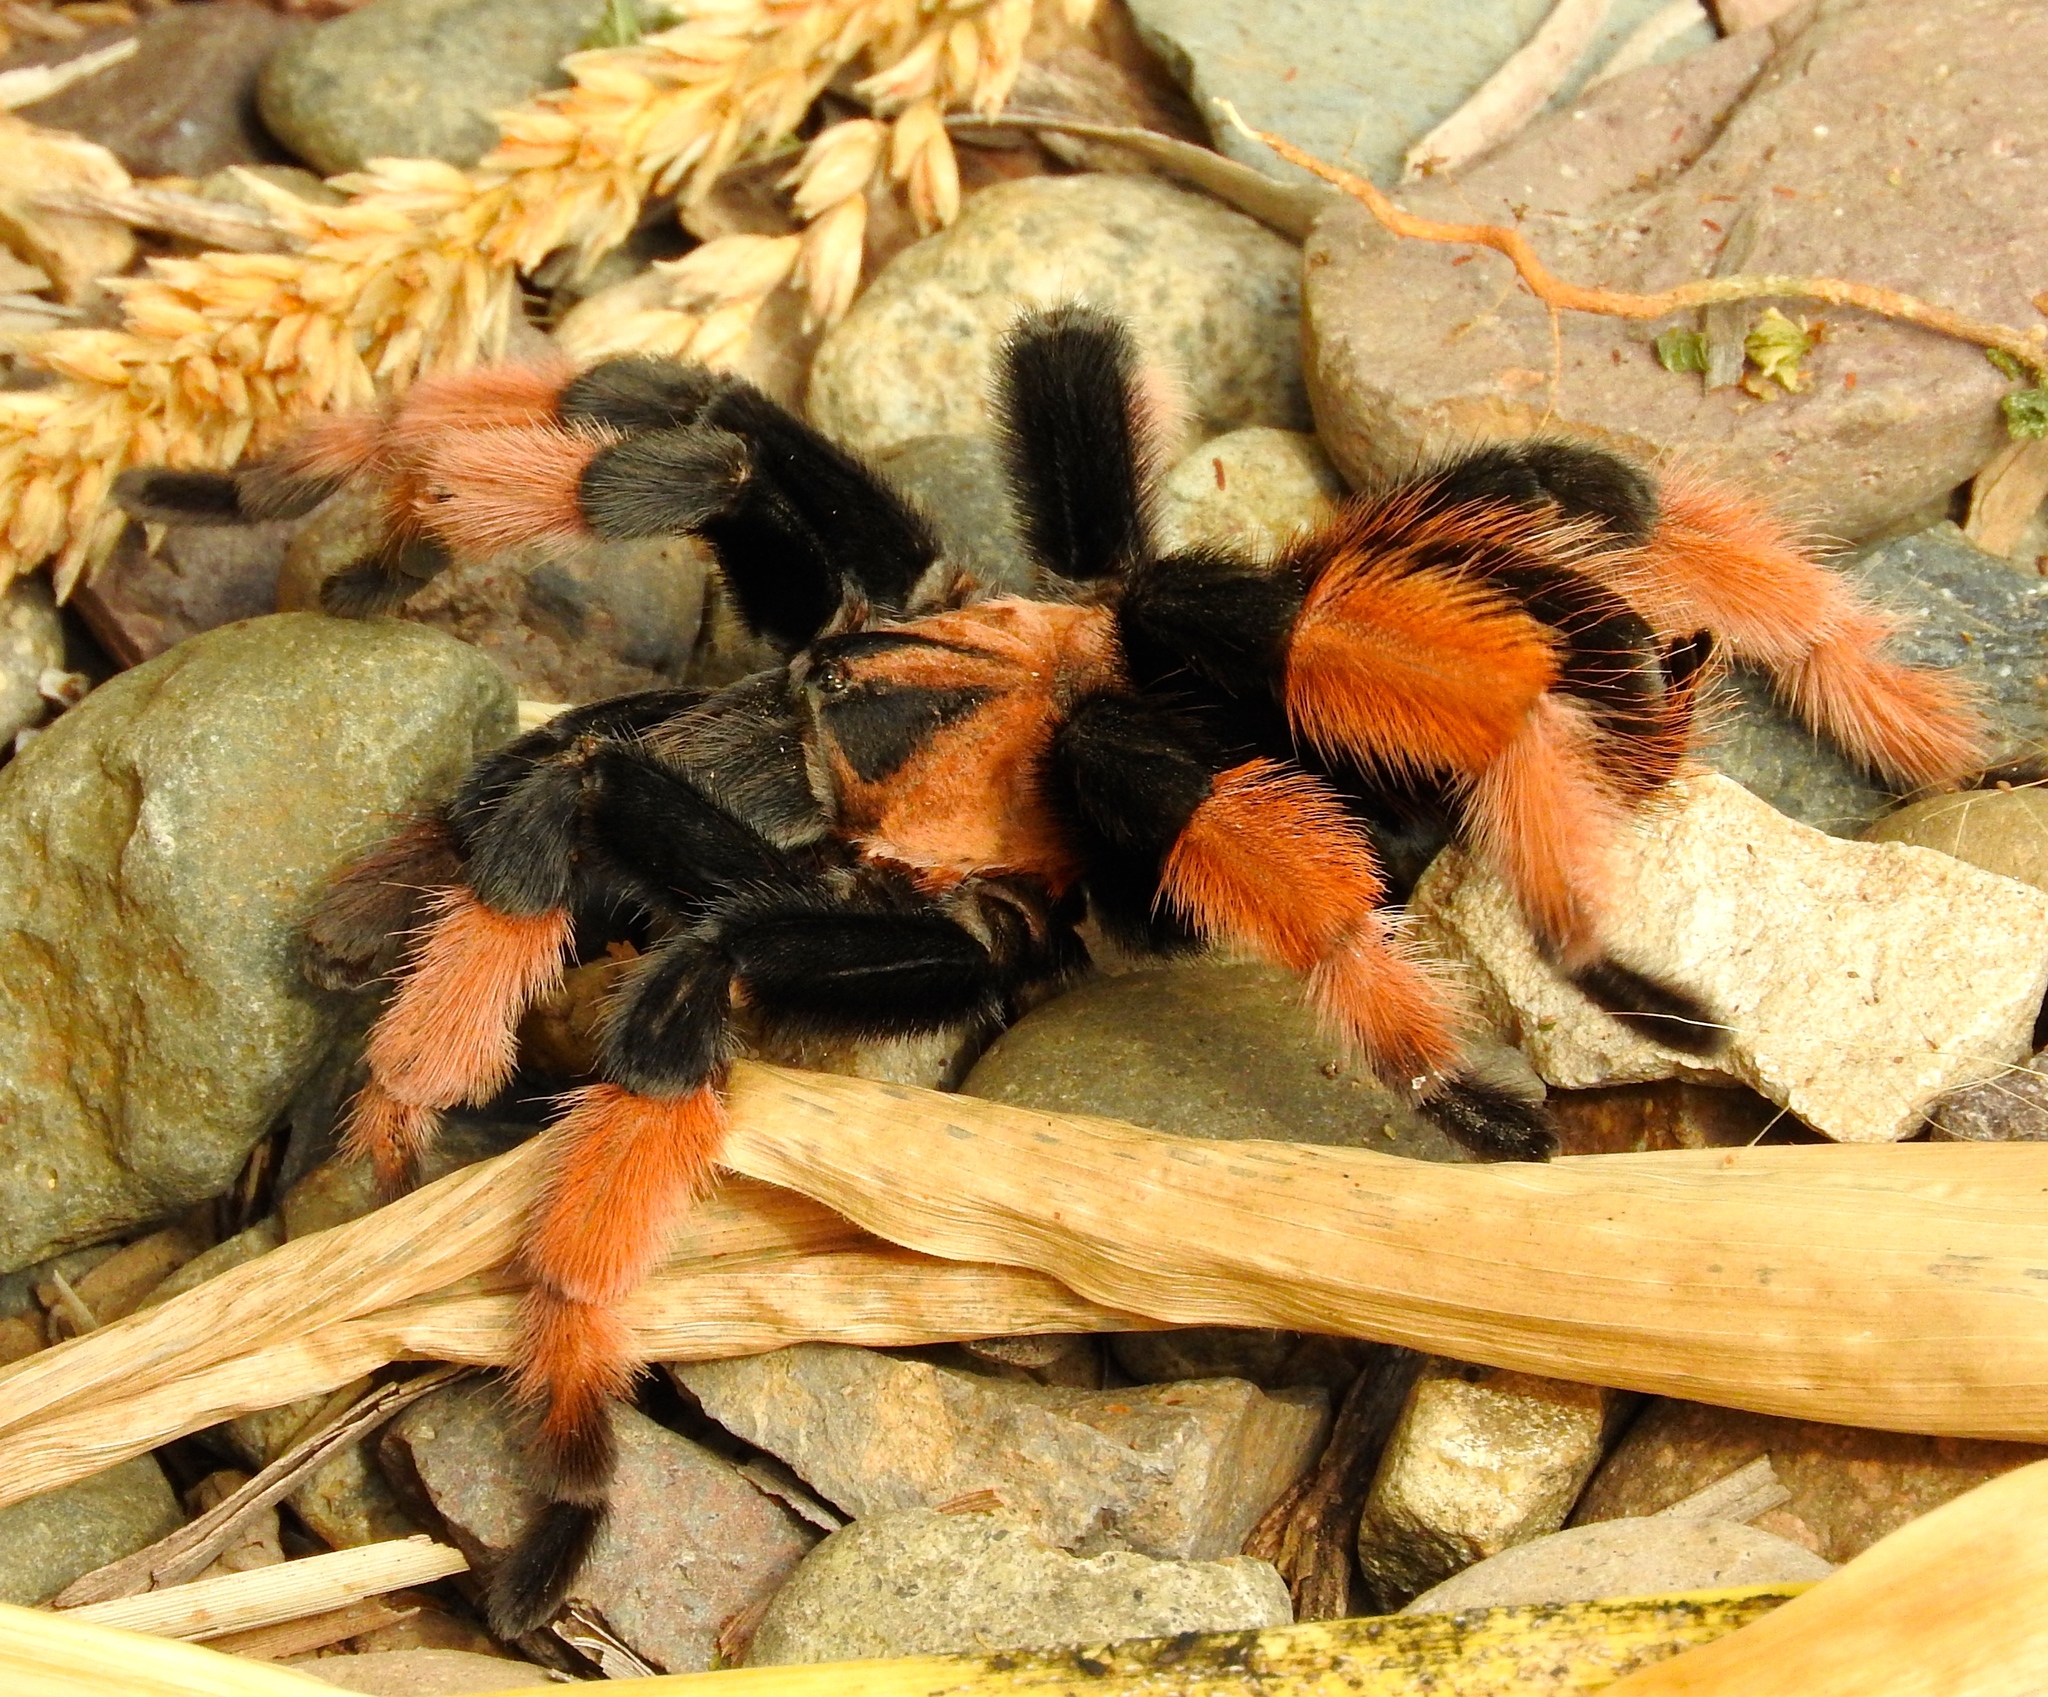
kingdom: Animalia
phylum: Arthropoda
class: Arachnida
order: Araneae
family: Theraphosidae
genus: Brachypelma
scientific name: Brachypelma emilia
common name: Mexican redleg
